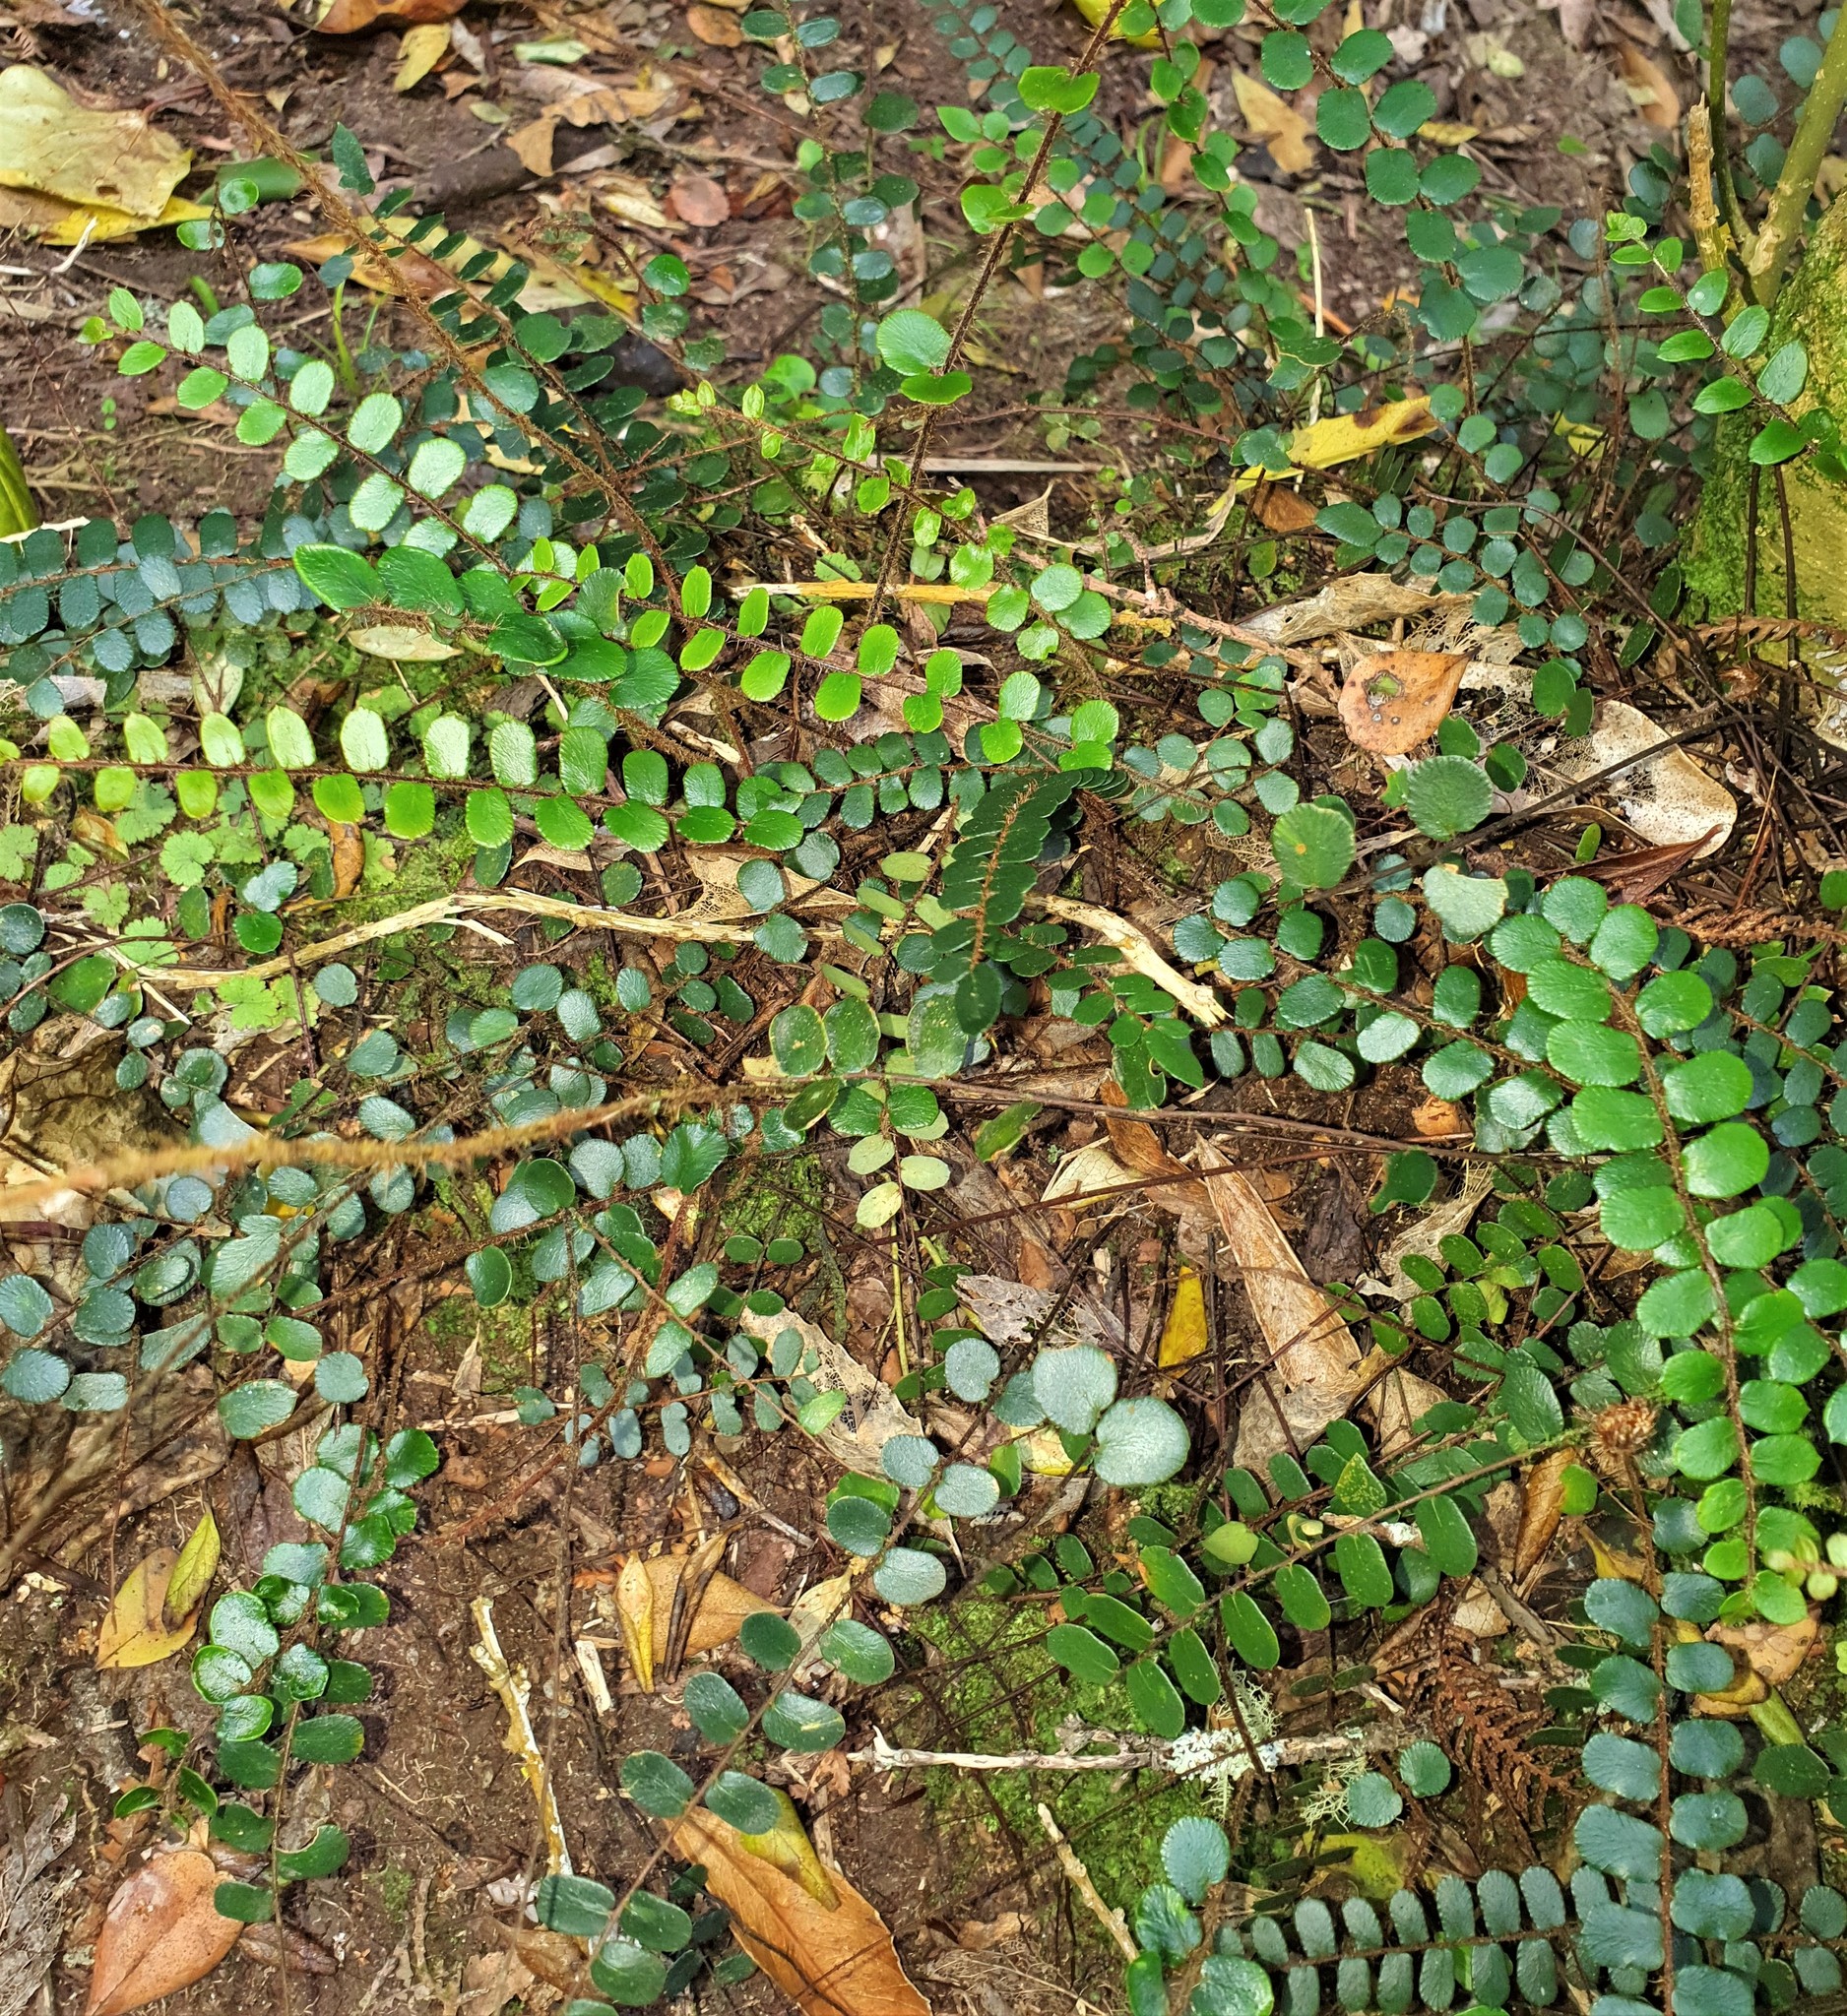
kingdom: Plantae
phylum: Tracheophyta
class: Polypodiopsida
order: Polypodiales
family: Pteridaceae
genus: Pellaea
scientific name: Pellaea rotundifolia
